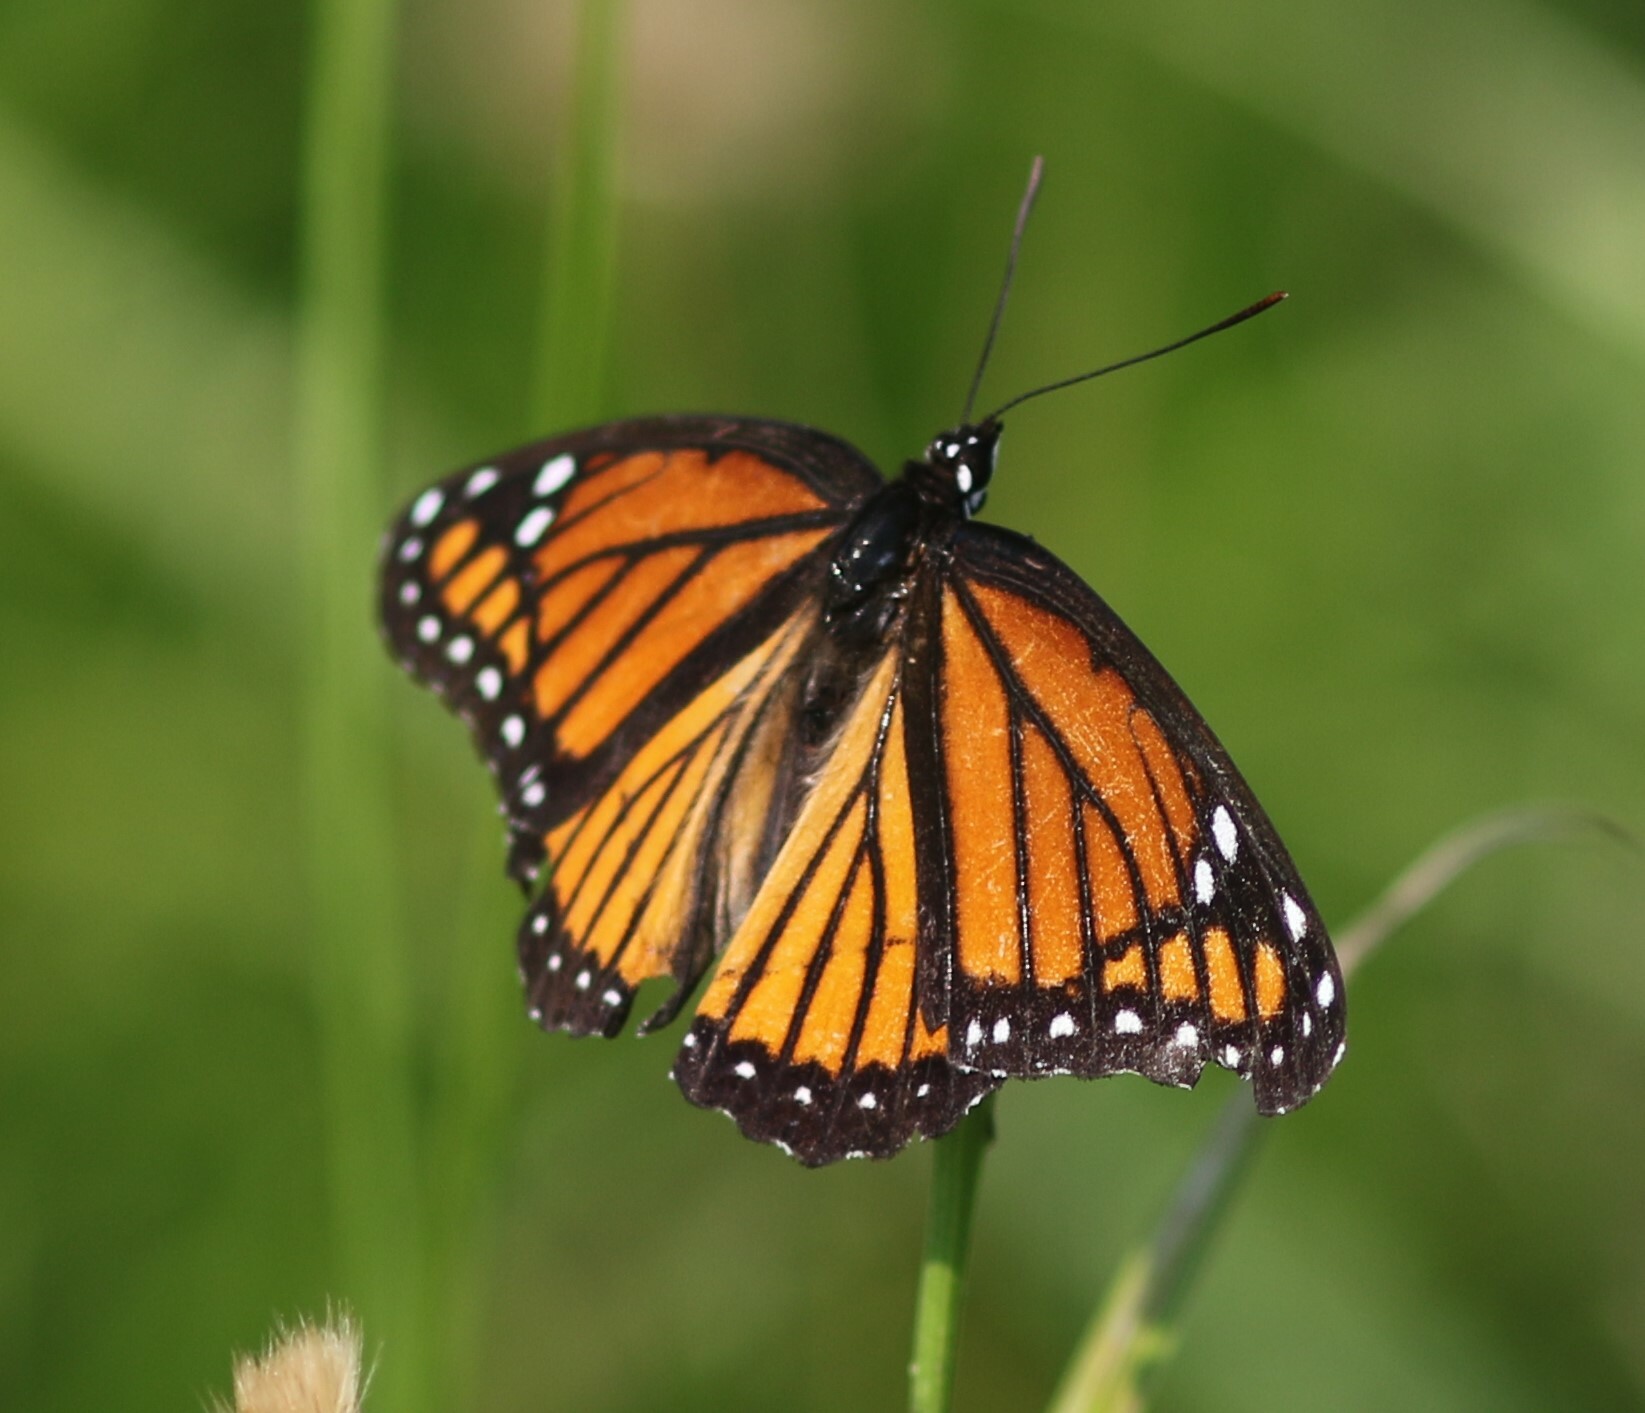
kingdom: Animalia
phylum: Arthropoda
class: Insecta
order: Lepidoptera
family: Nymphalidae
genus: Limenitis
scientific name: Limenitis archippus
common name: Viceroy
